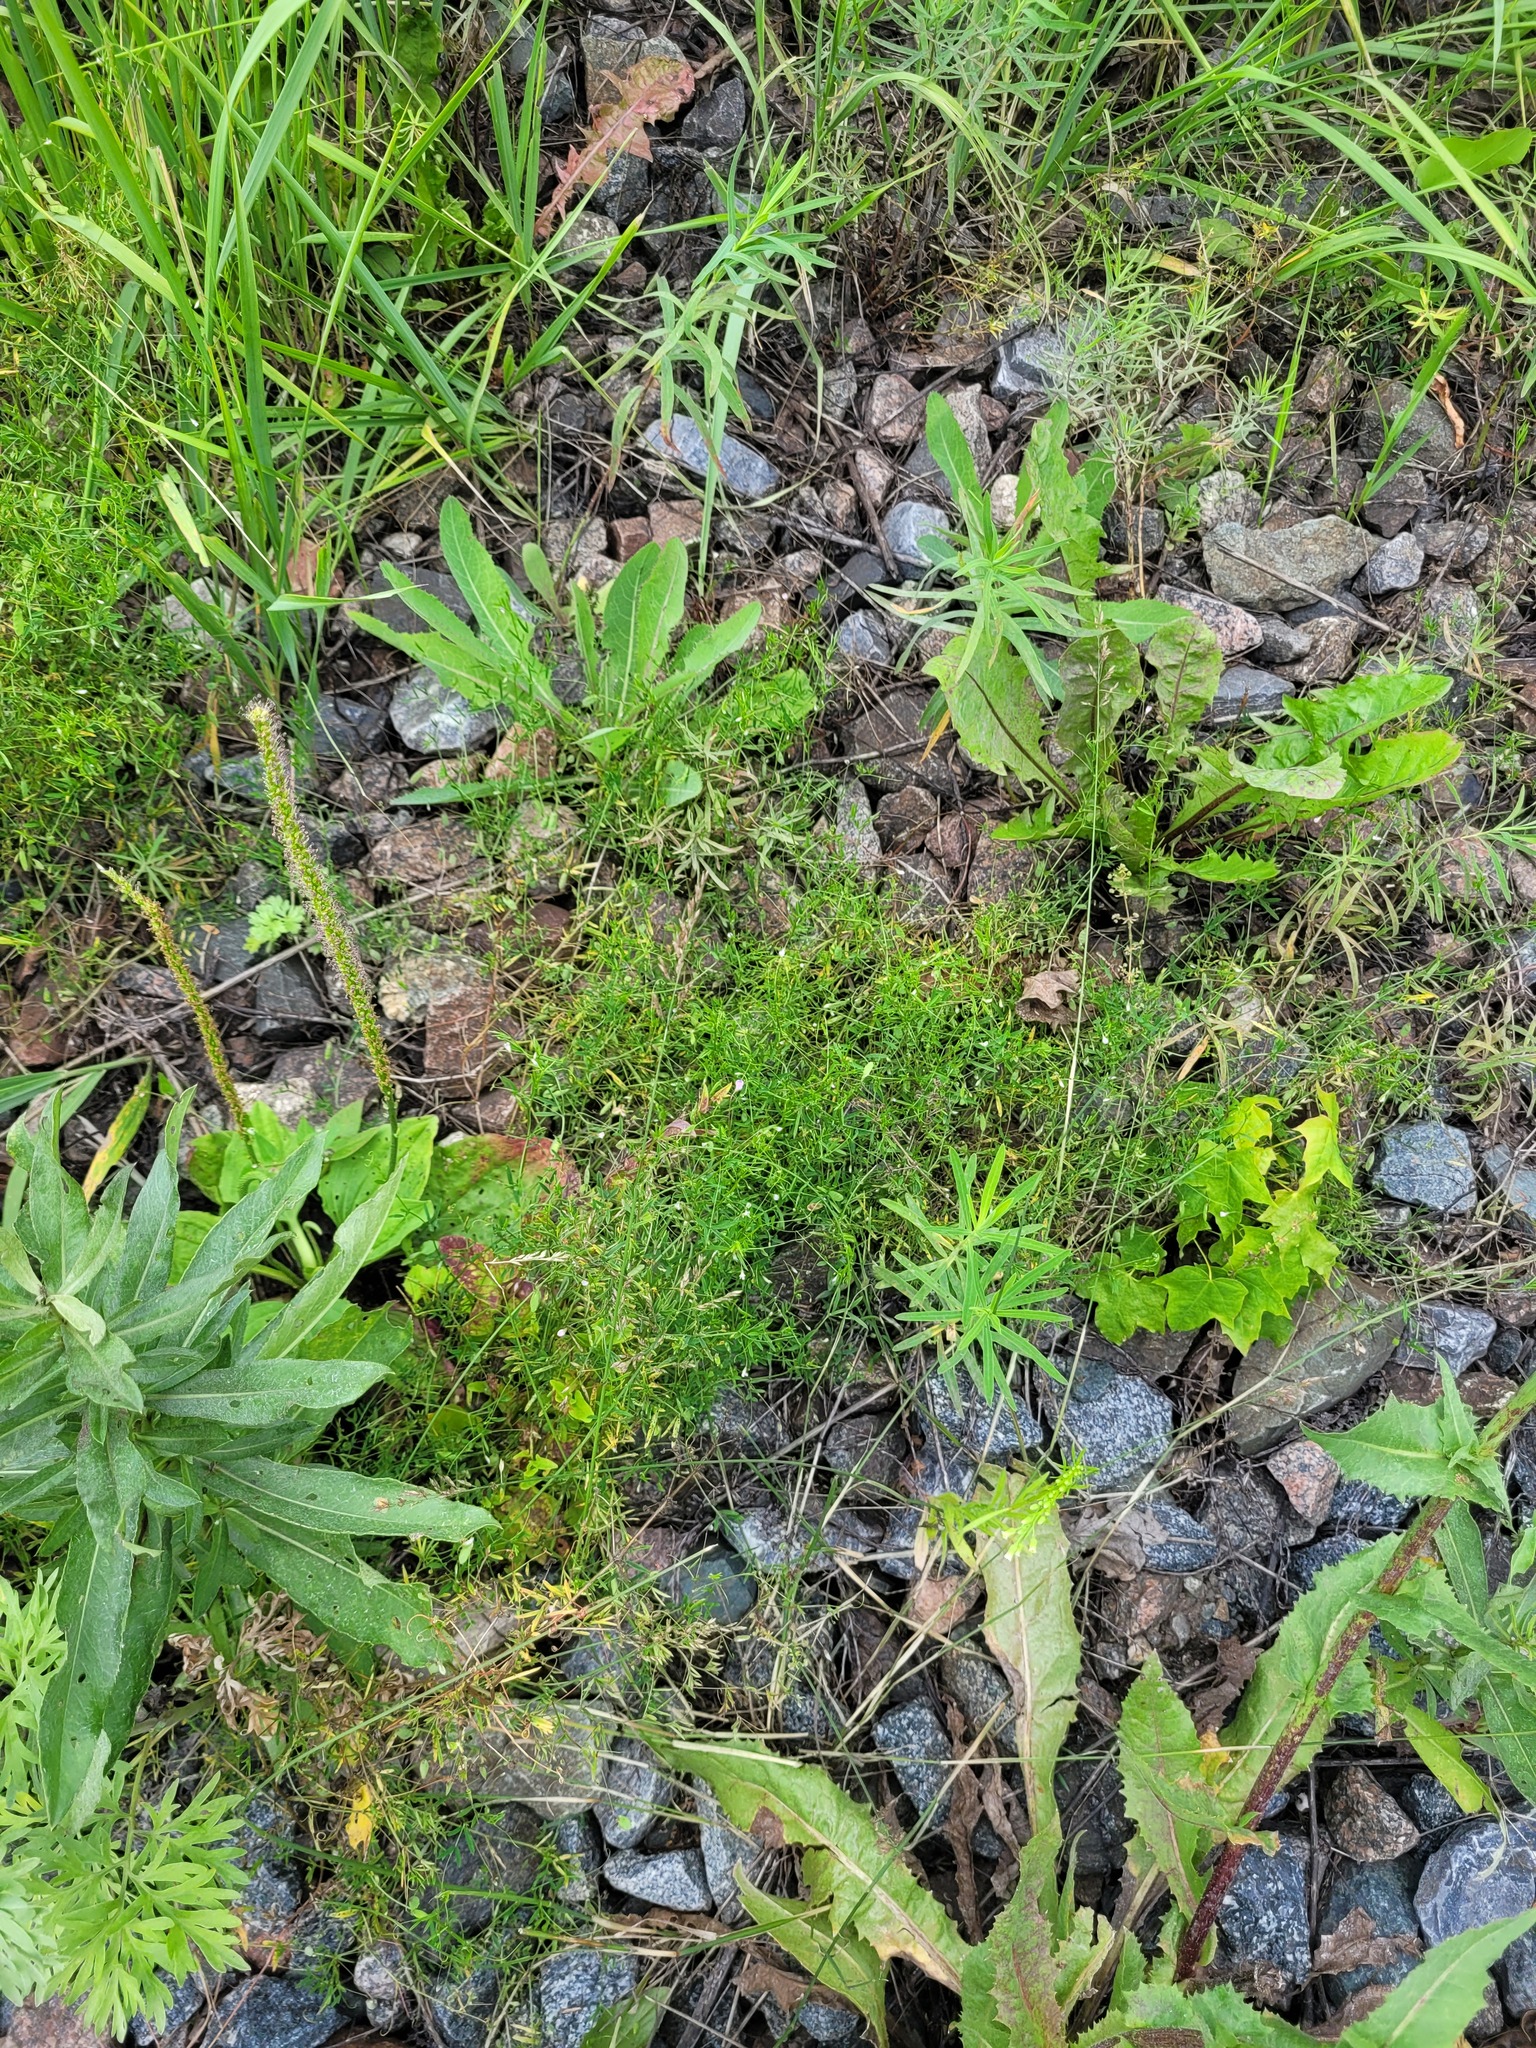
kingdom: Plantae
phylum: Tracheophyta
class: Magnoliopsida
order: Fabales
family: Fabaceae
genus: Vicia
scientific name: Vicia tetrasperma
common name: Smooth tare
